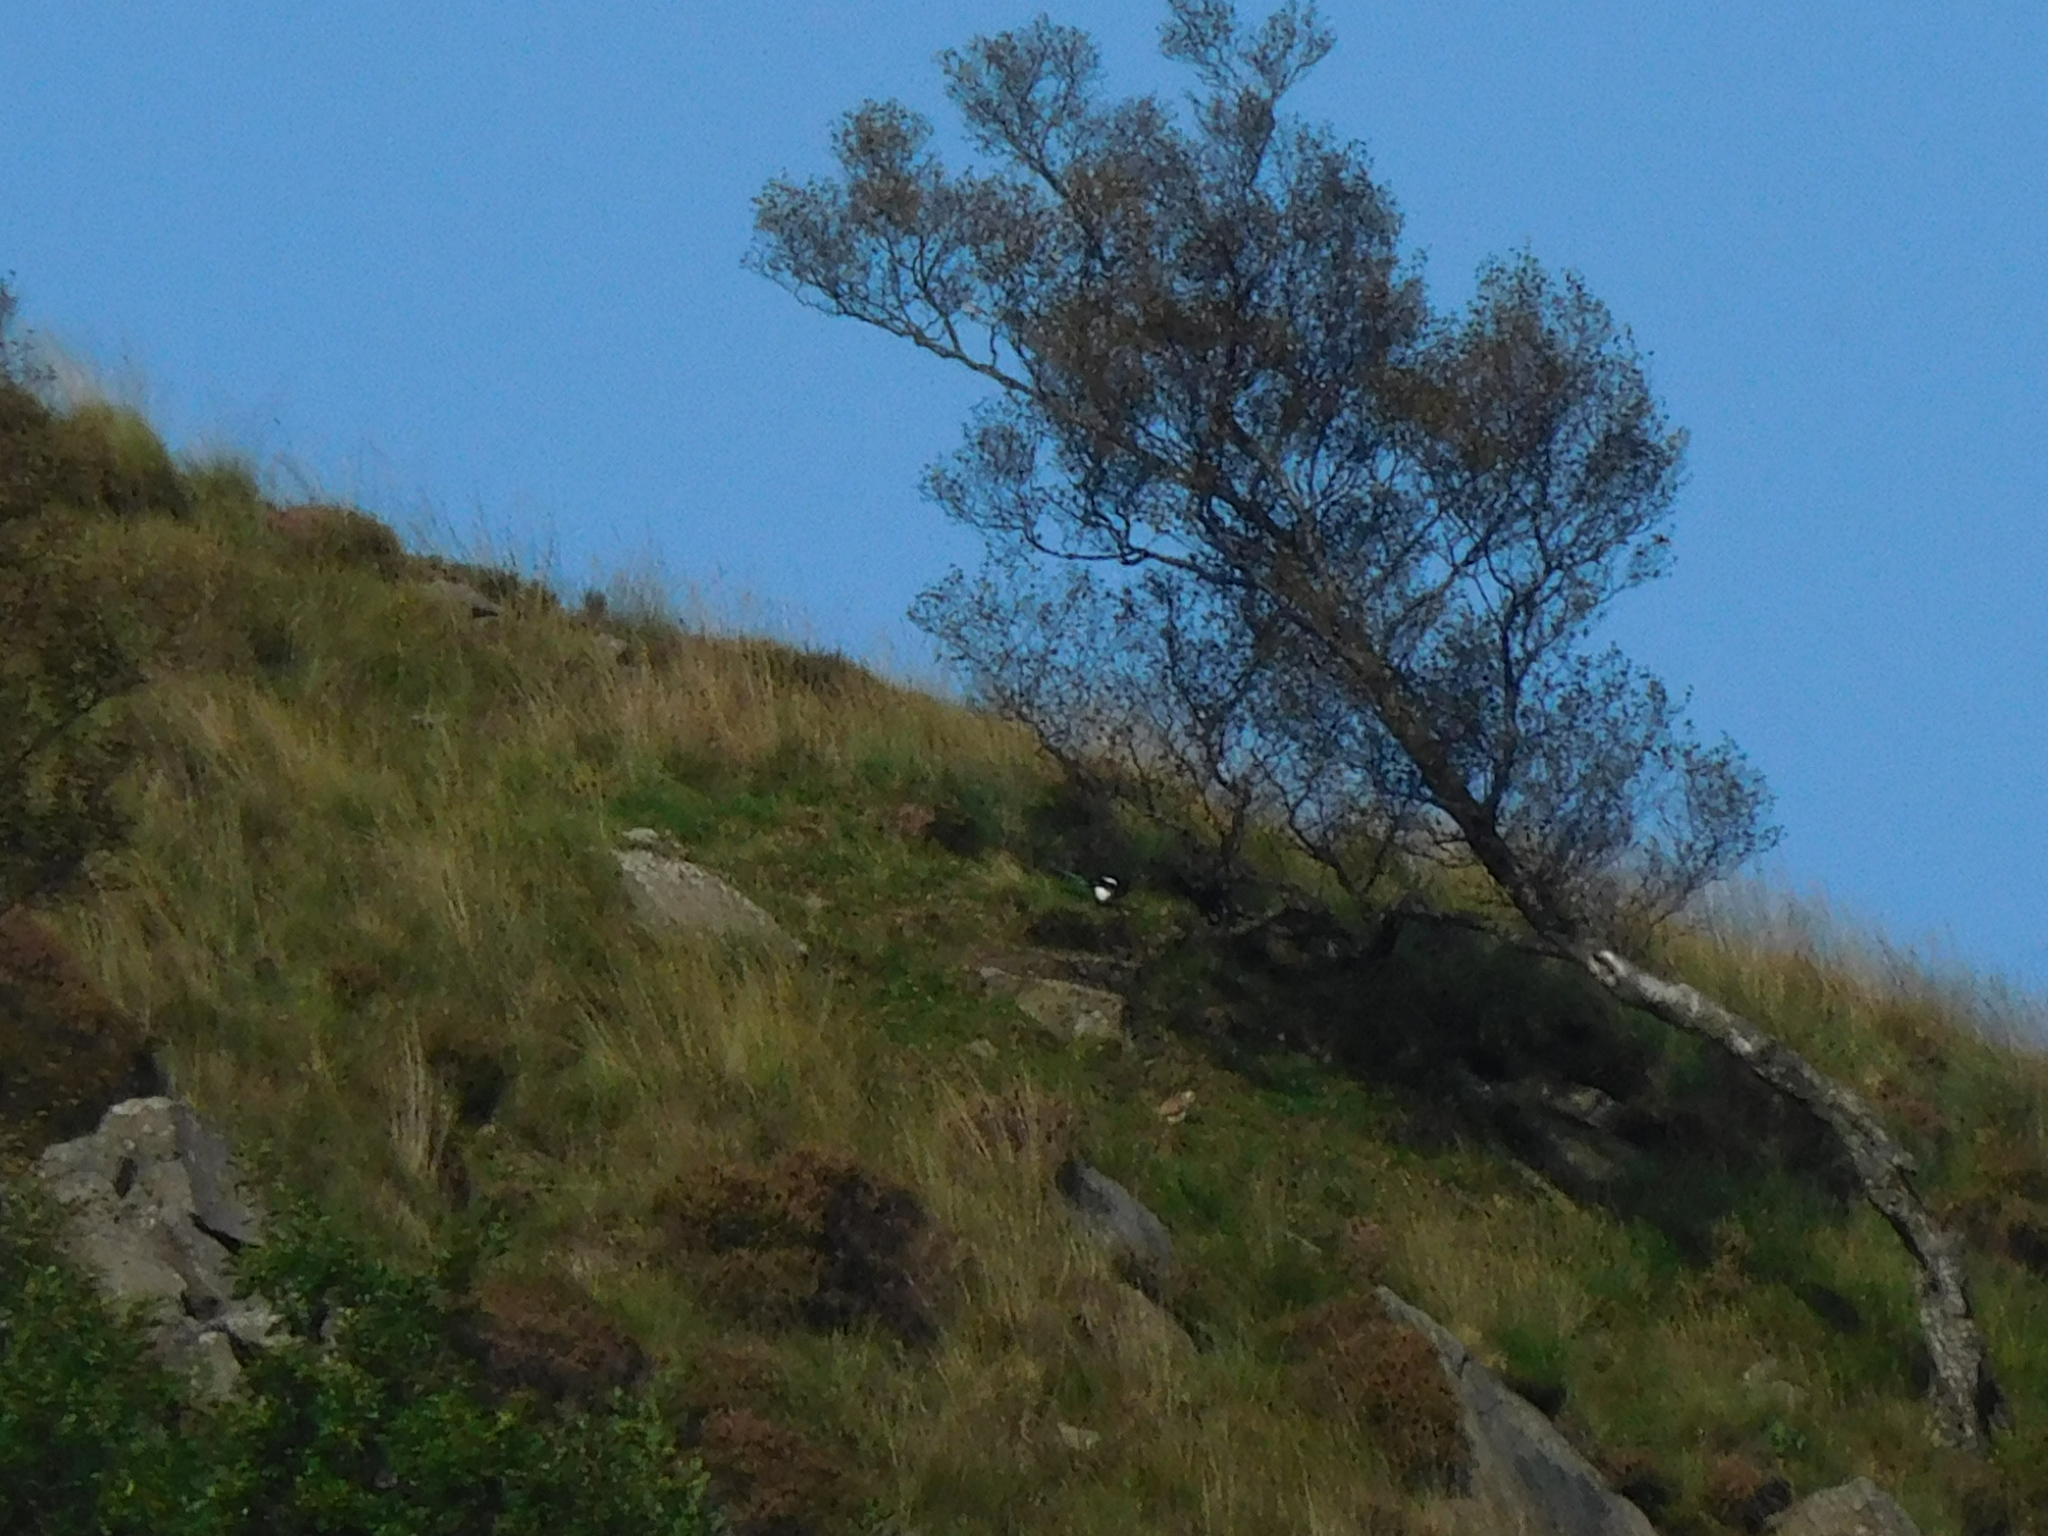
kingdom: Animalia
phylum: Chordata
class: Aves
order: Falconiformes
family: Falconidae
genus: Falco
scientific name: Falco tinnunculus
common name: Common kestrel
